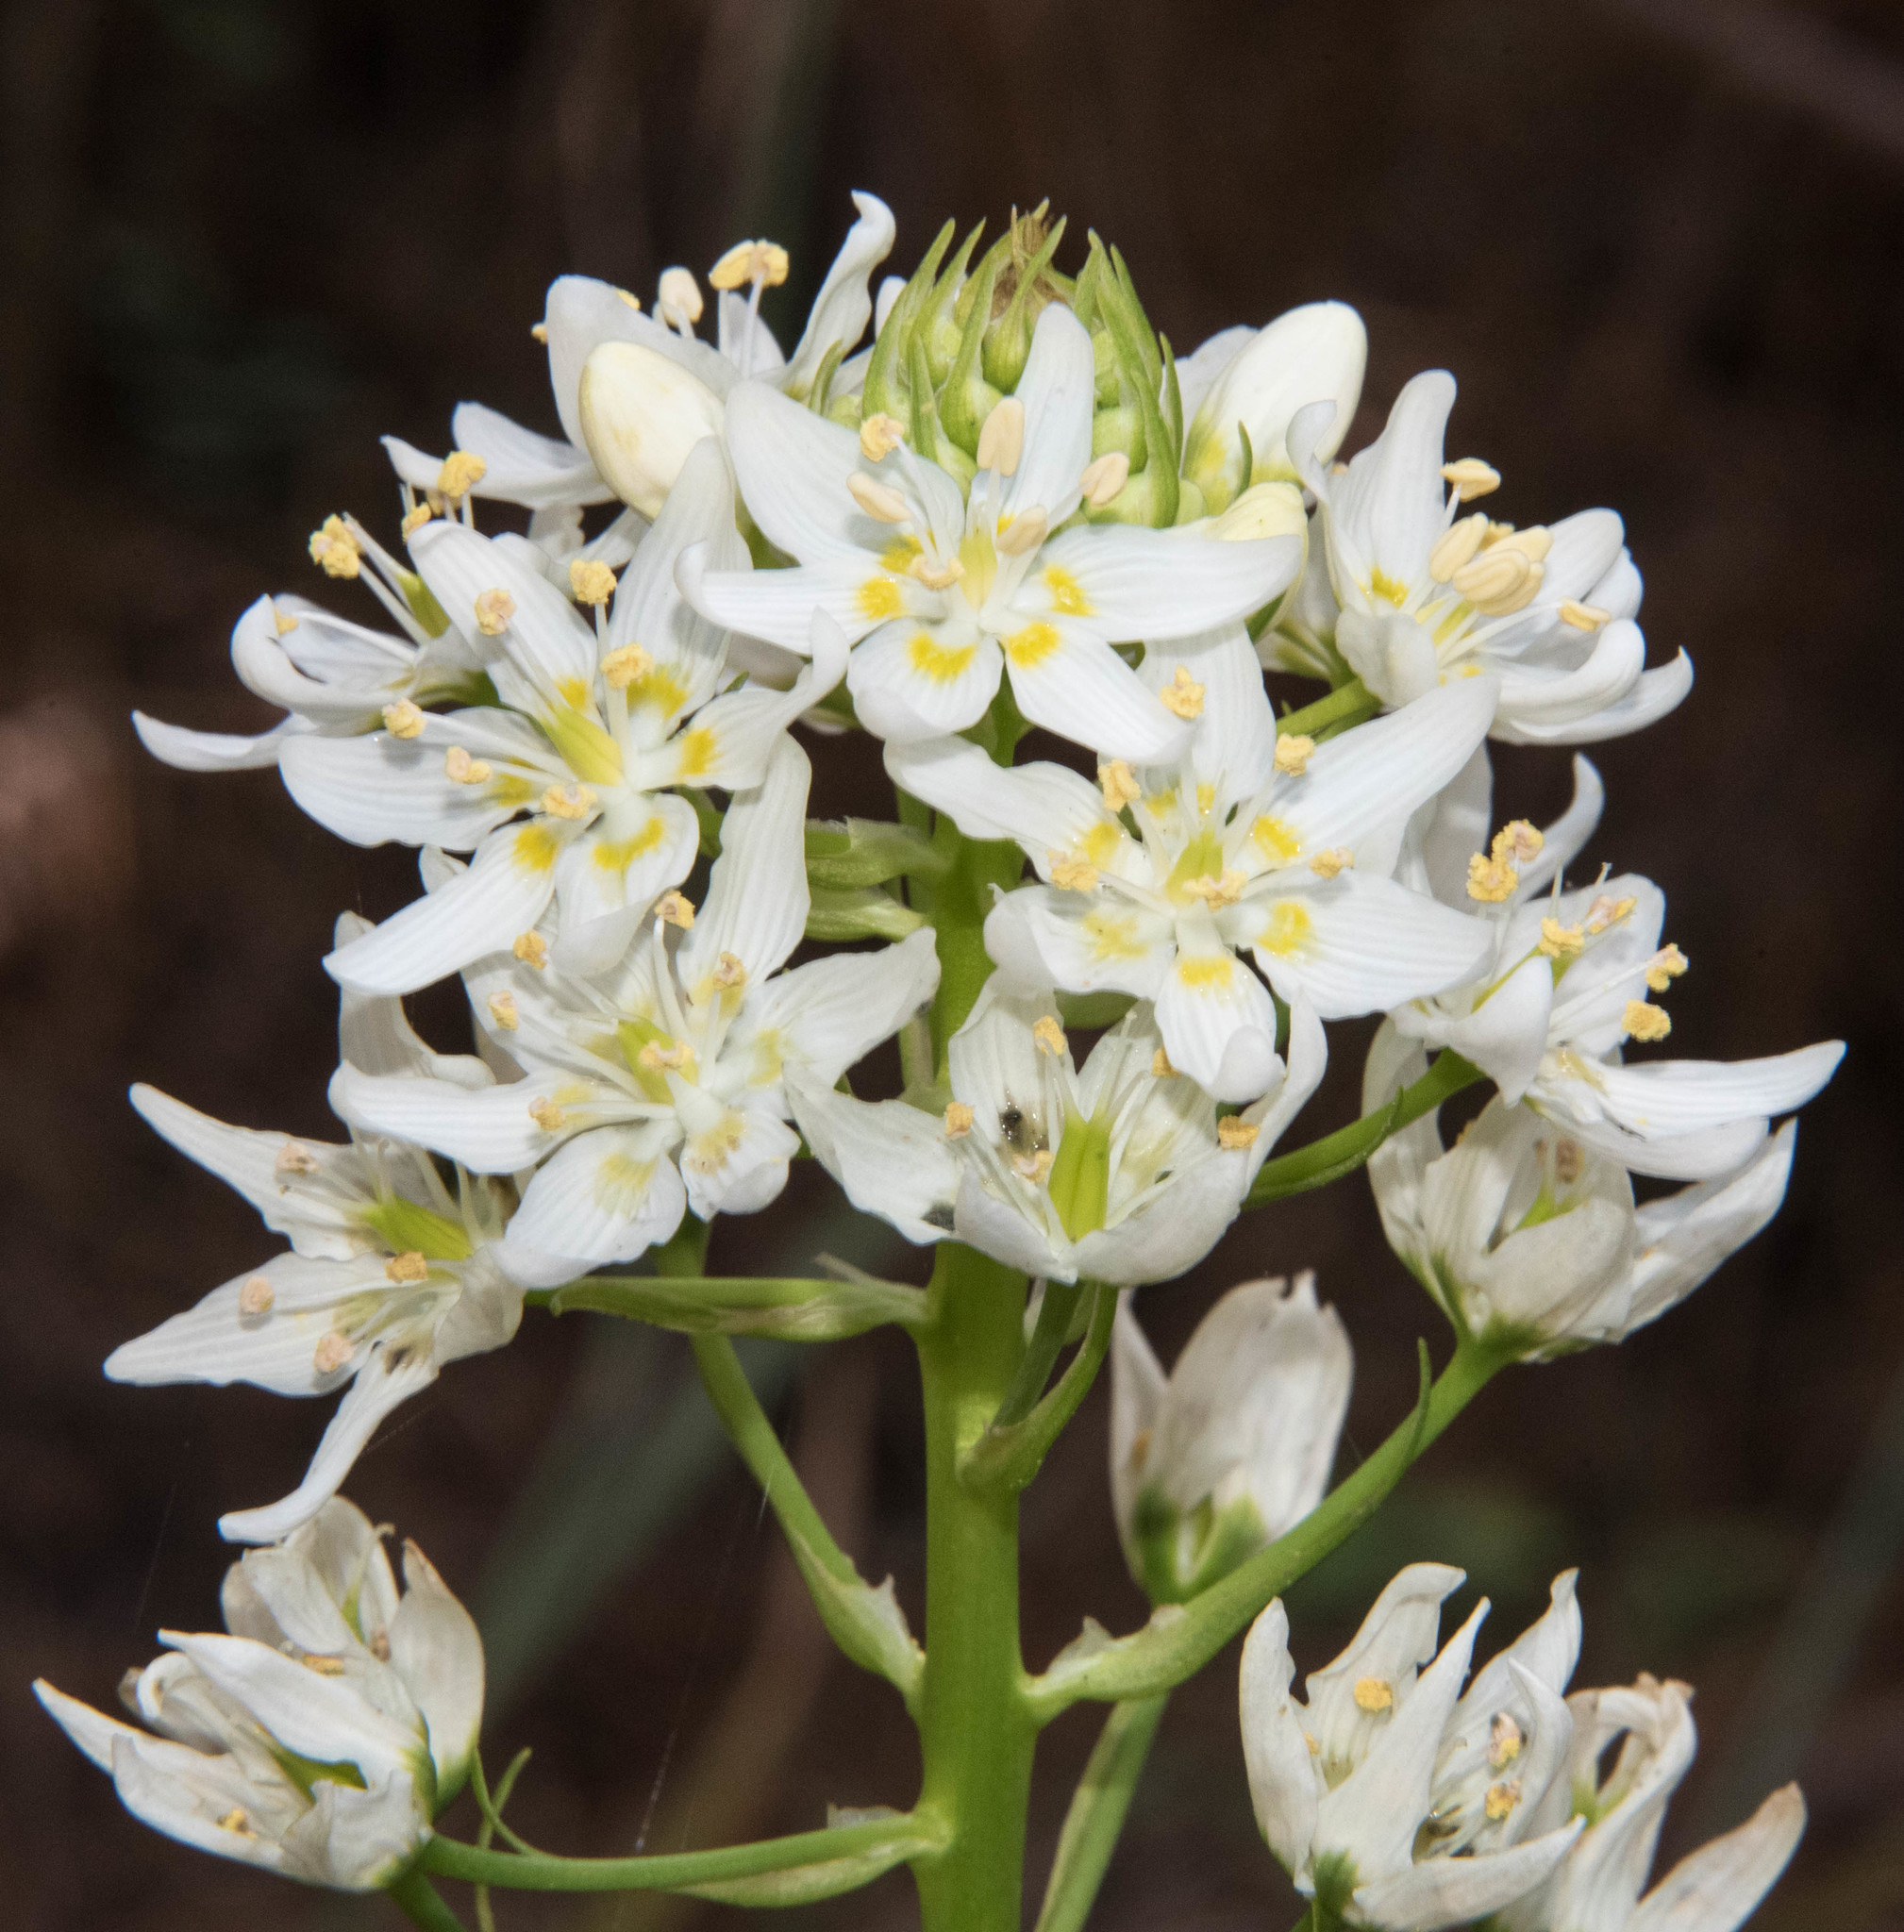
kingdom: Plantae
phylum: Tracheophyta
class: Liliopsida
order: Liliales
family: Melanthiaceae
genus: Toxicoscordion
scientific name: Toxicoscordion fremontii
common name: Fremont's death camas
